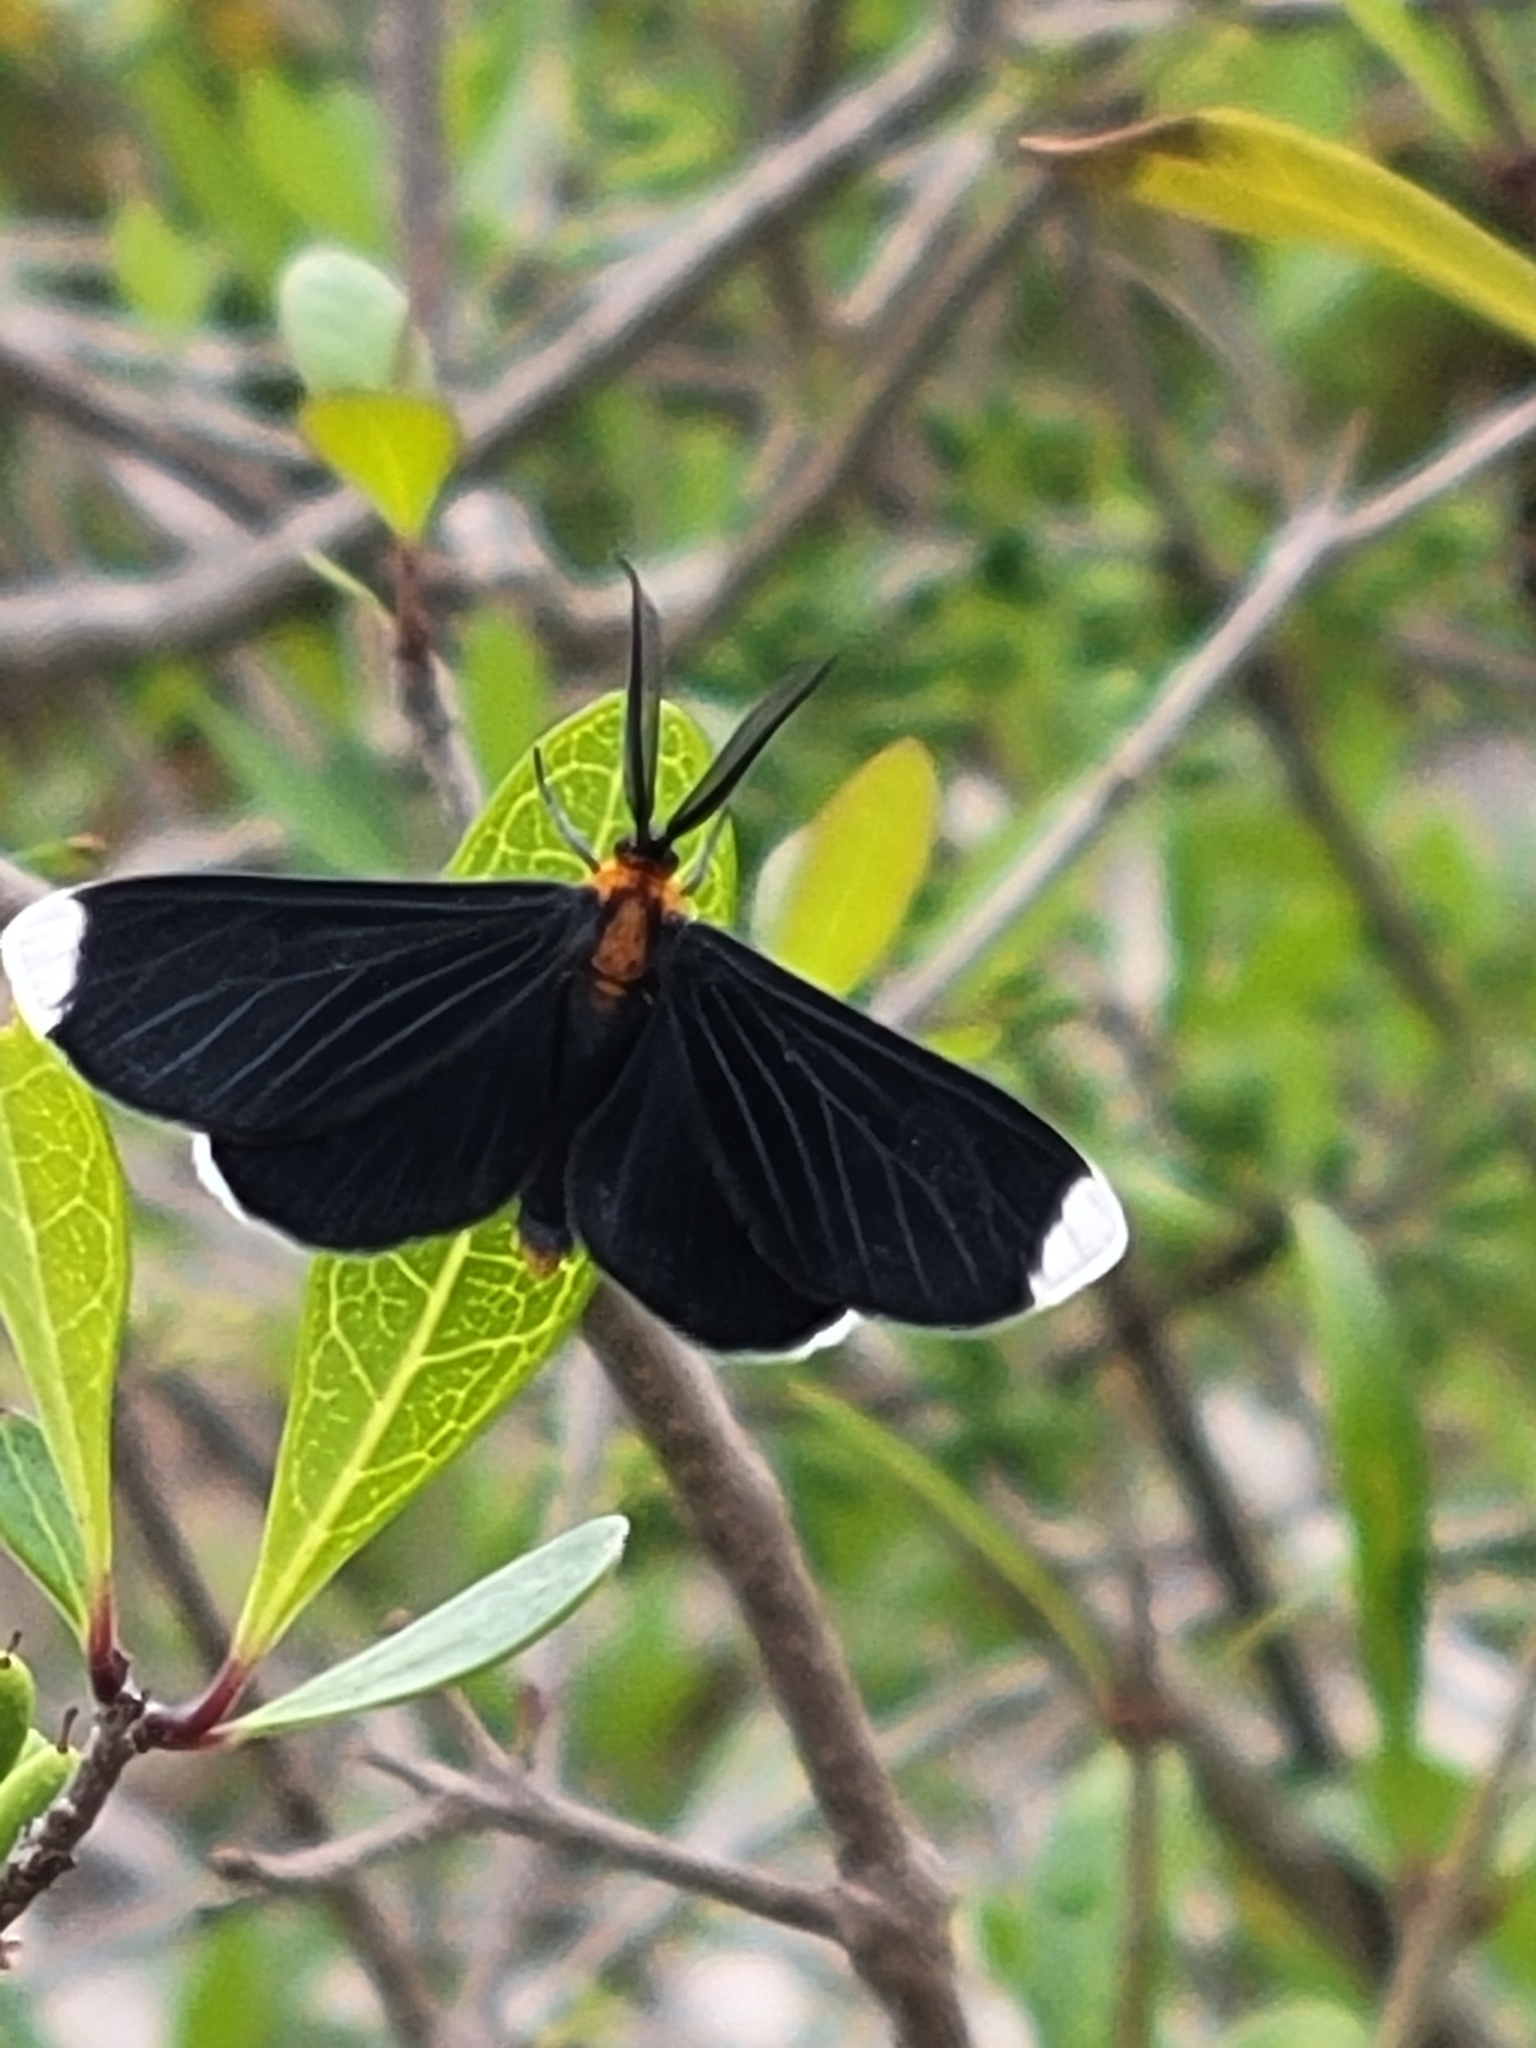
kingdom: Animalia
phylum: Arthropoda
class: Insecta
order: Lepidoptera
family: Geometridae
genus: Melanchroia
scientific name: Melanchroia chephise
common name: White-tipped black
